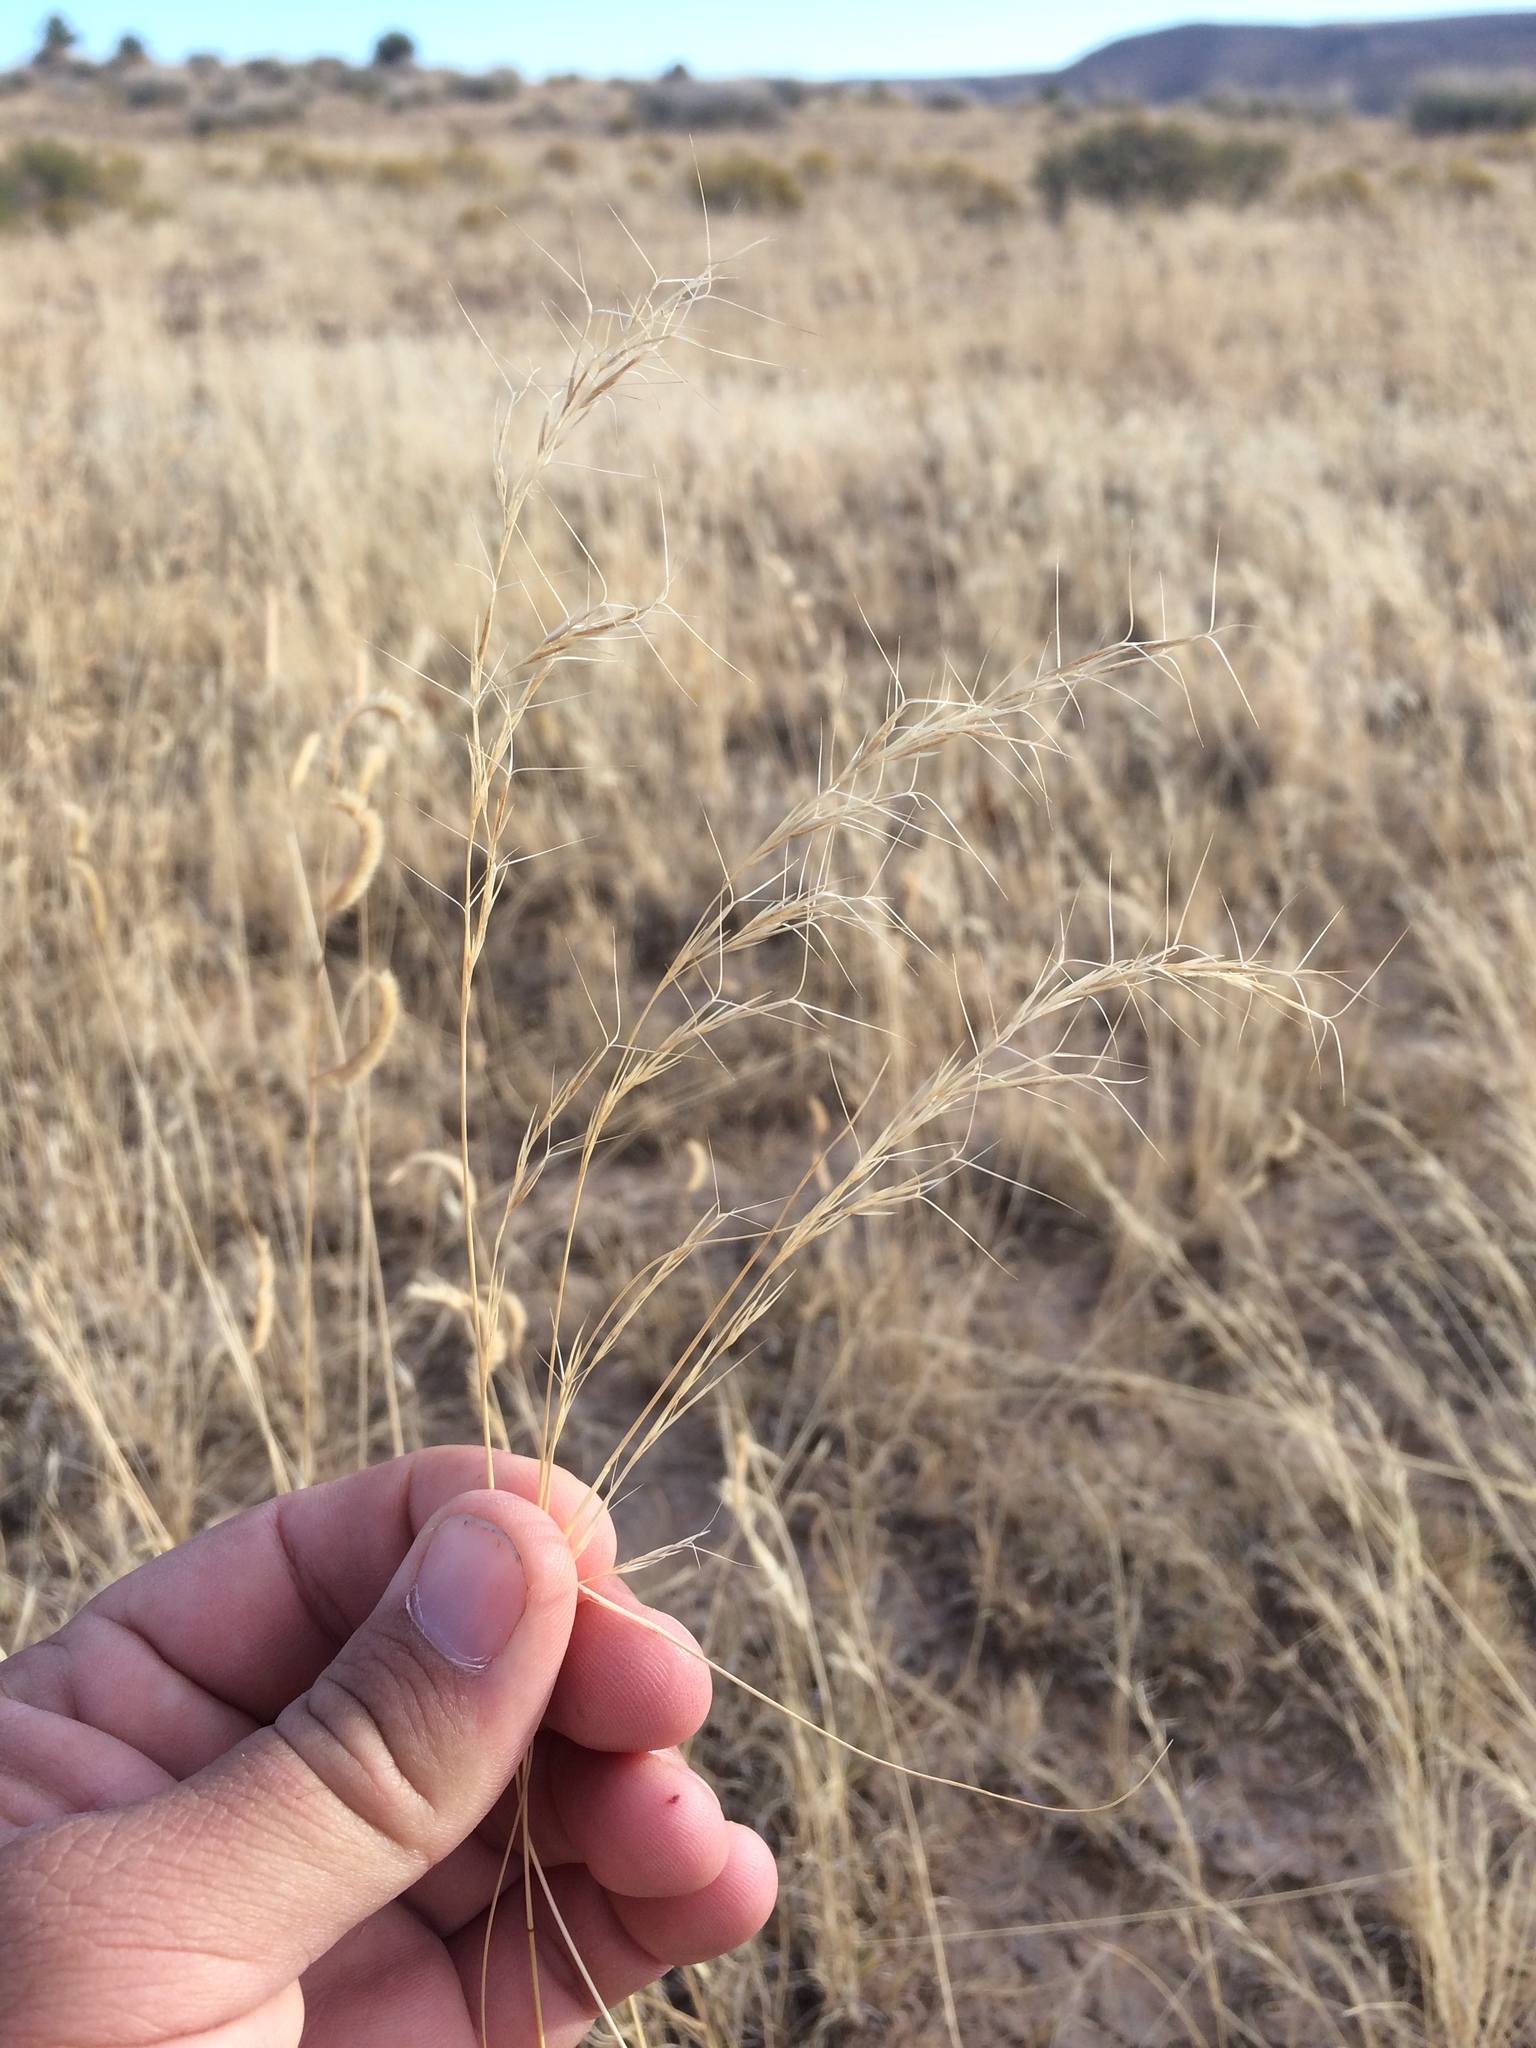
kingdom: Plantae
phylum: Tracheophyta
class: Liliopsida
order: Poales
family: Poaceae
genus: Aristida
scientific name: Aristida adscensionis
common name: Sixweeks threeawn
